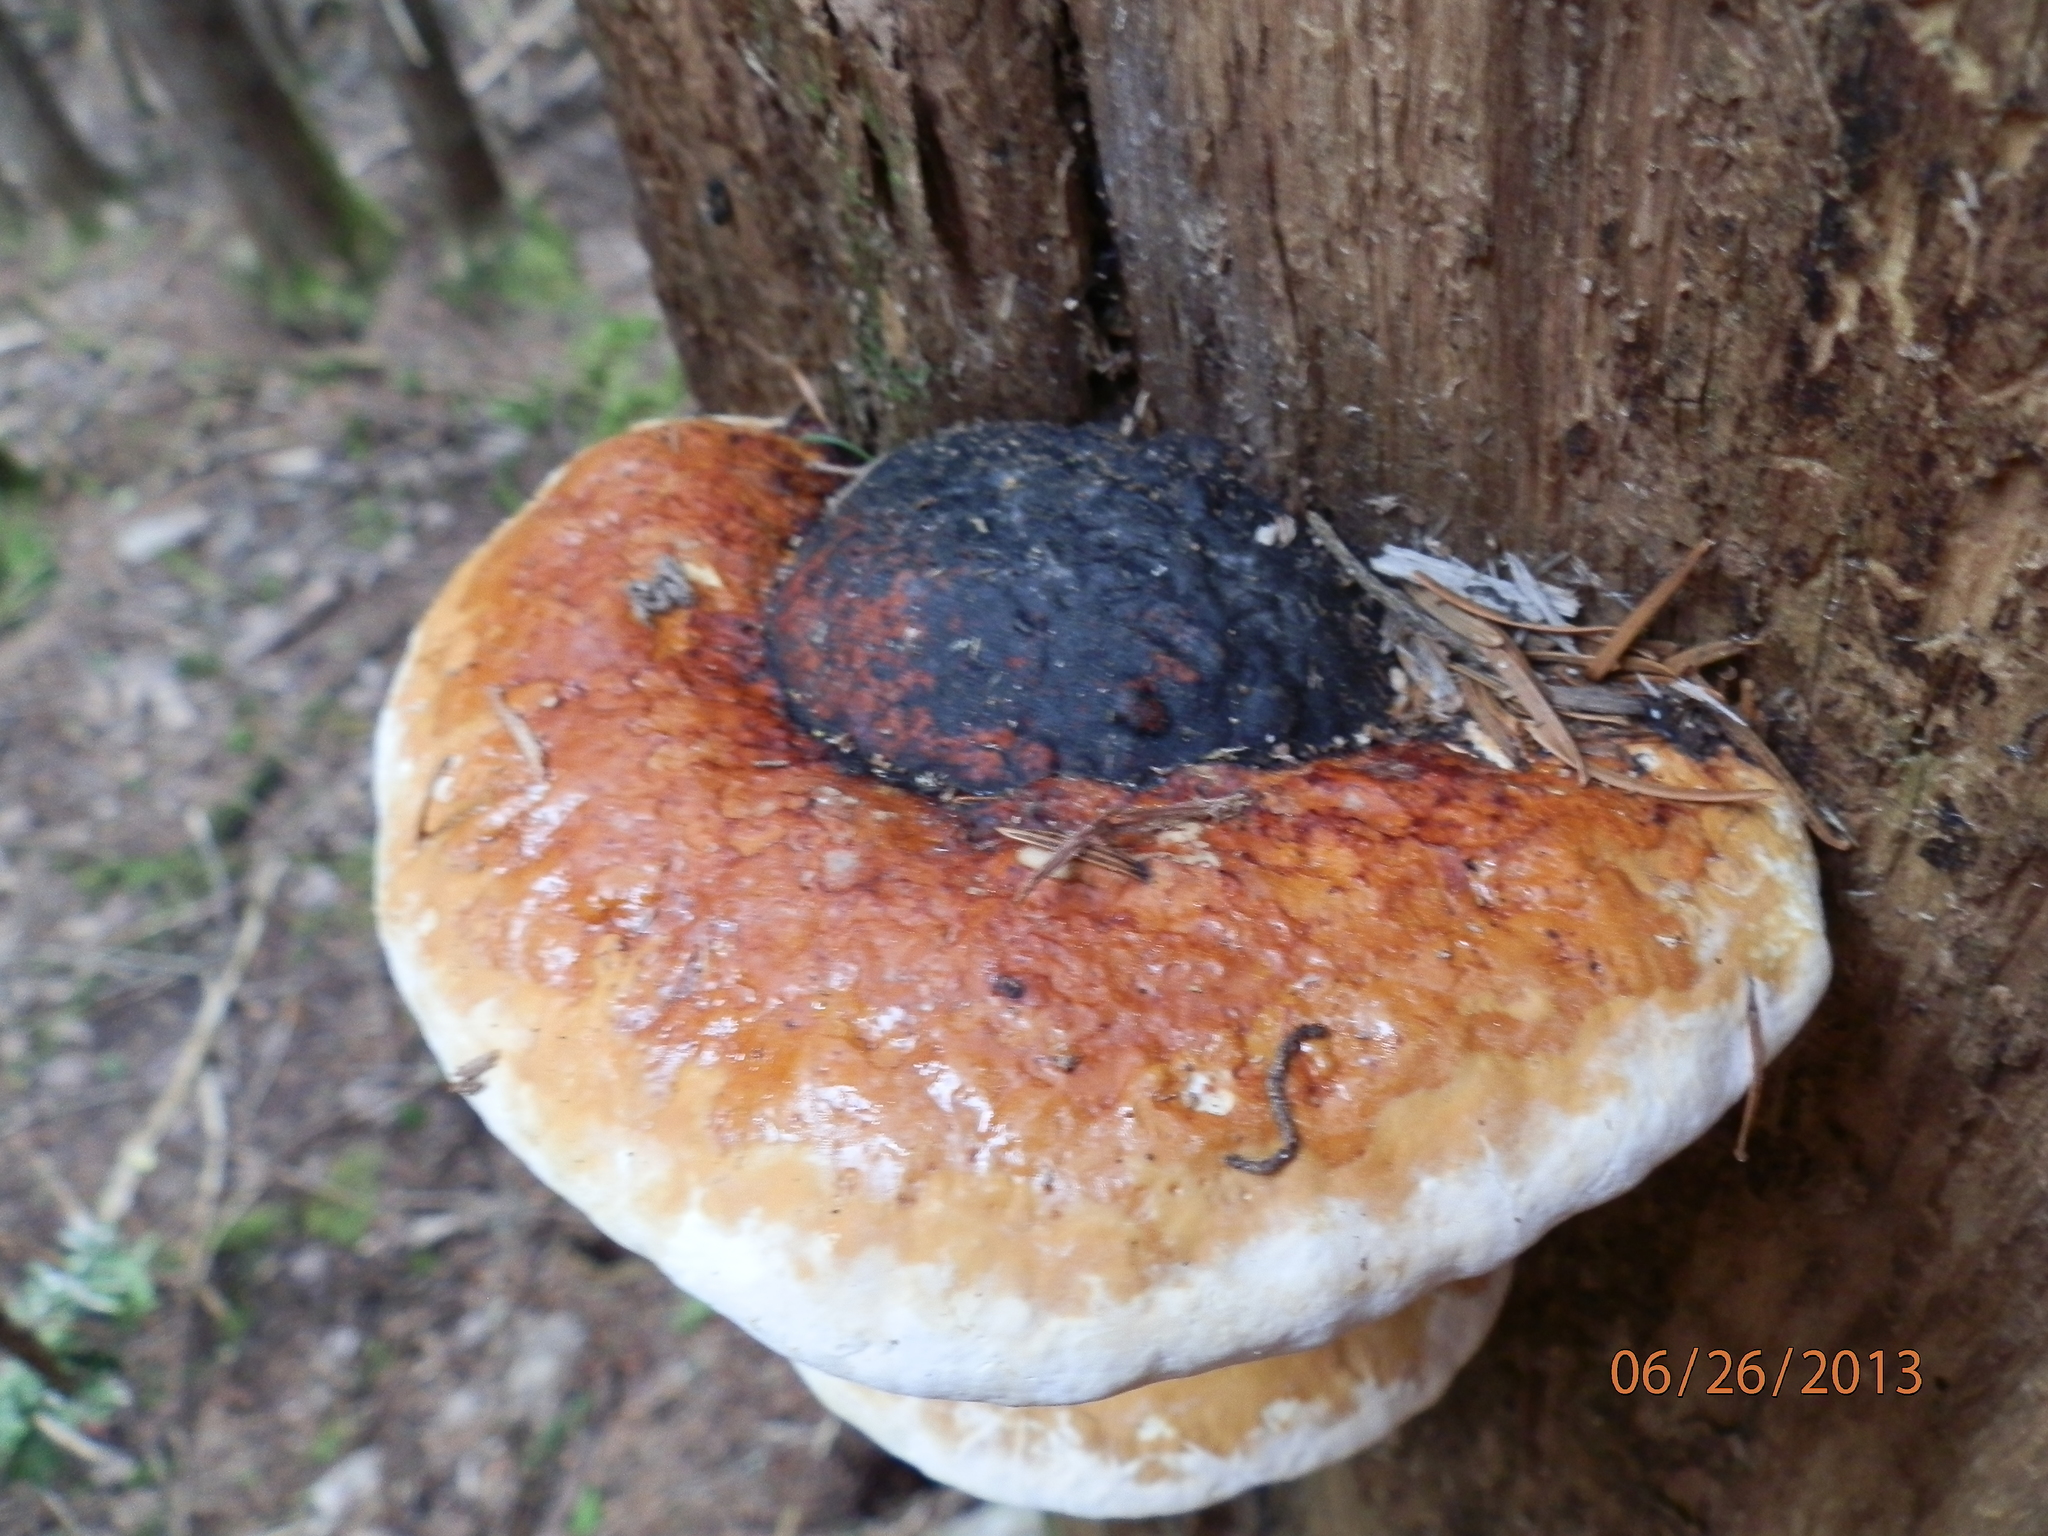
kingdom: Fungi
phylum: Basidiomycota
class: Agaricomycetes
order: Polyporales
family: Fomitopsidaceae
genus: Fomitopsis
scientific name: Fomitopsis mounceae
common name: Northern red belt
